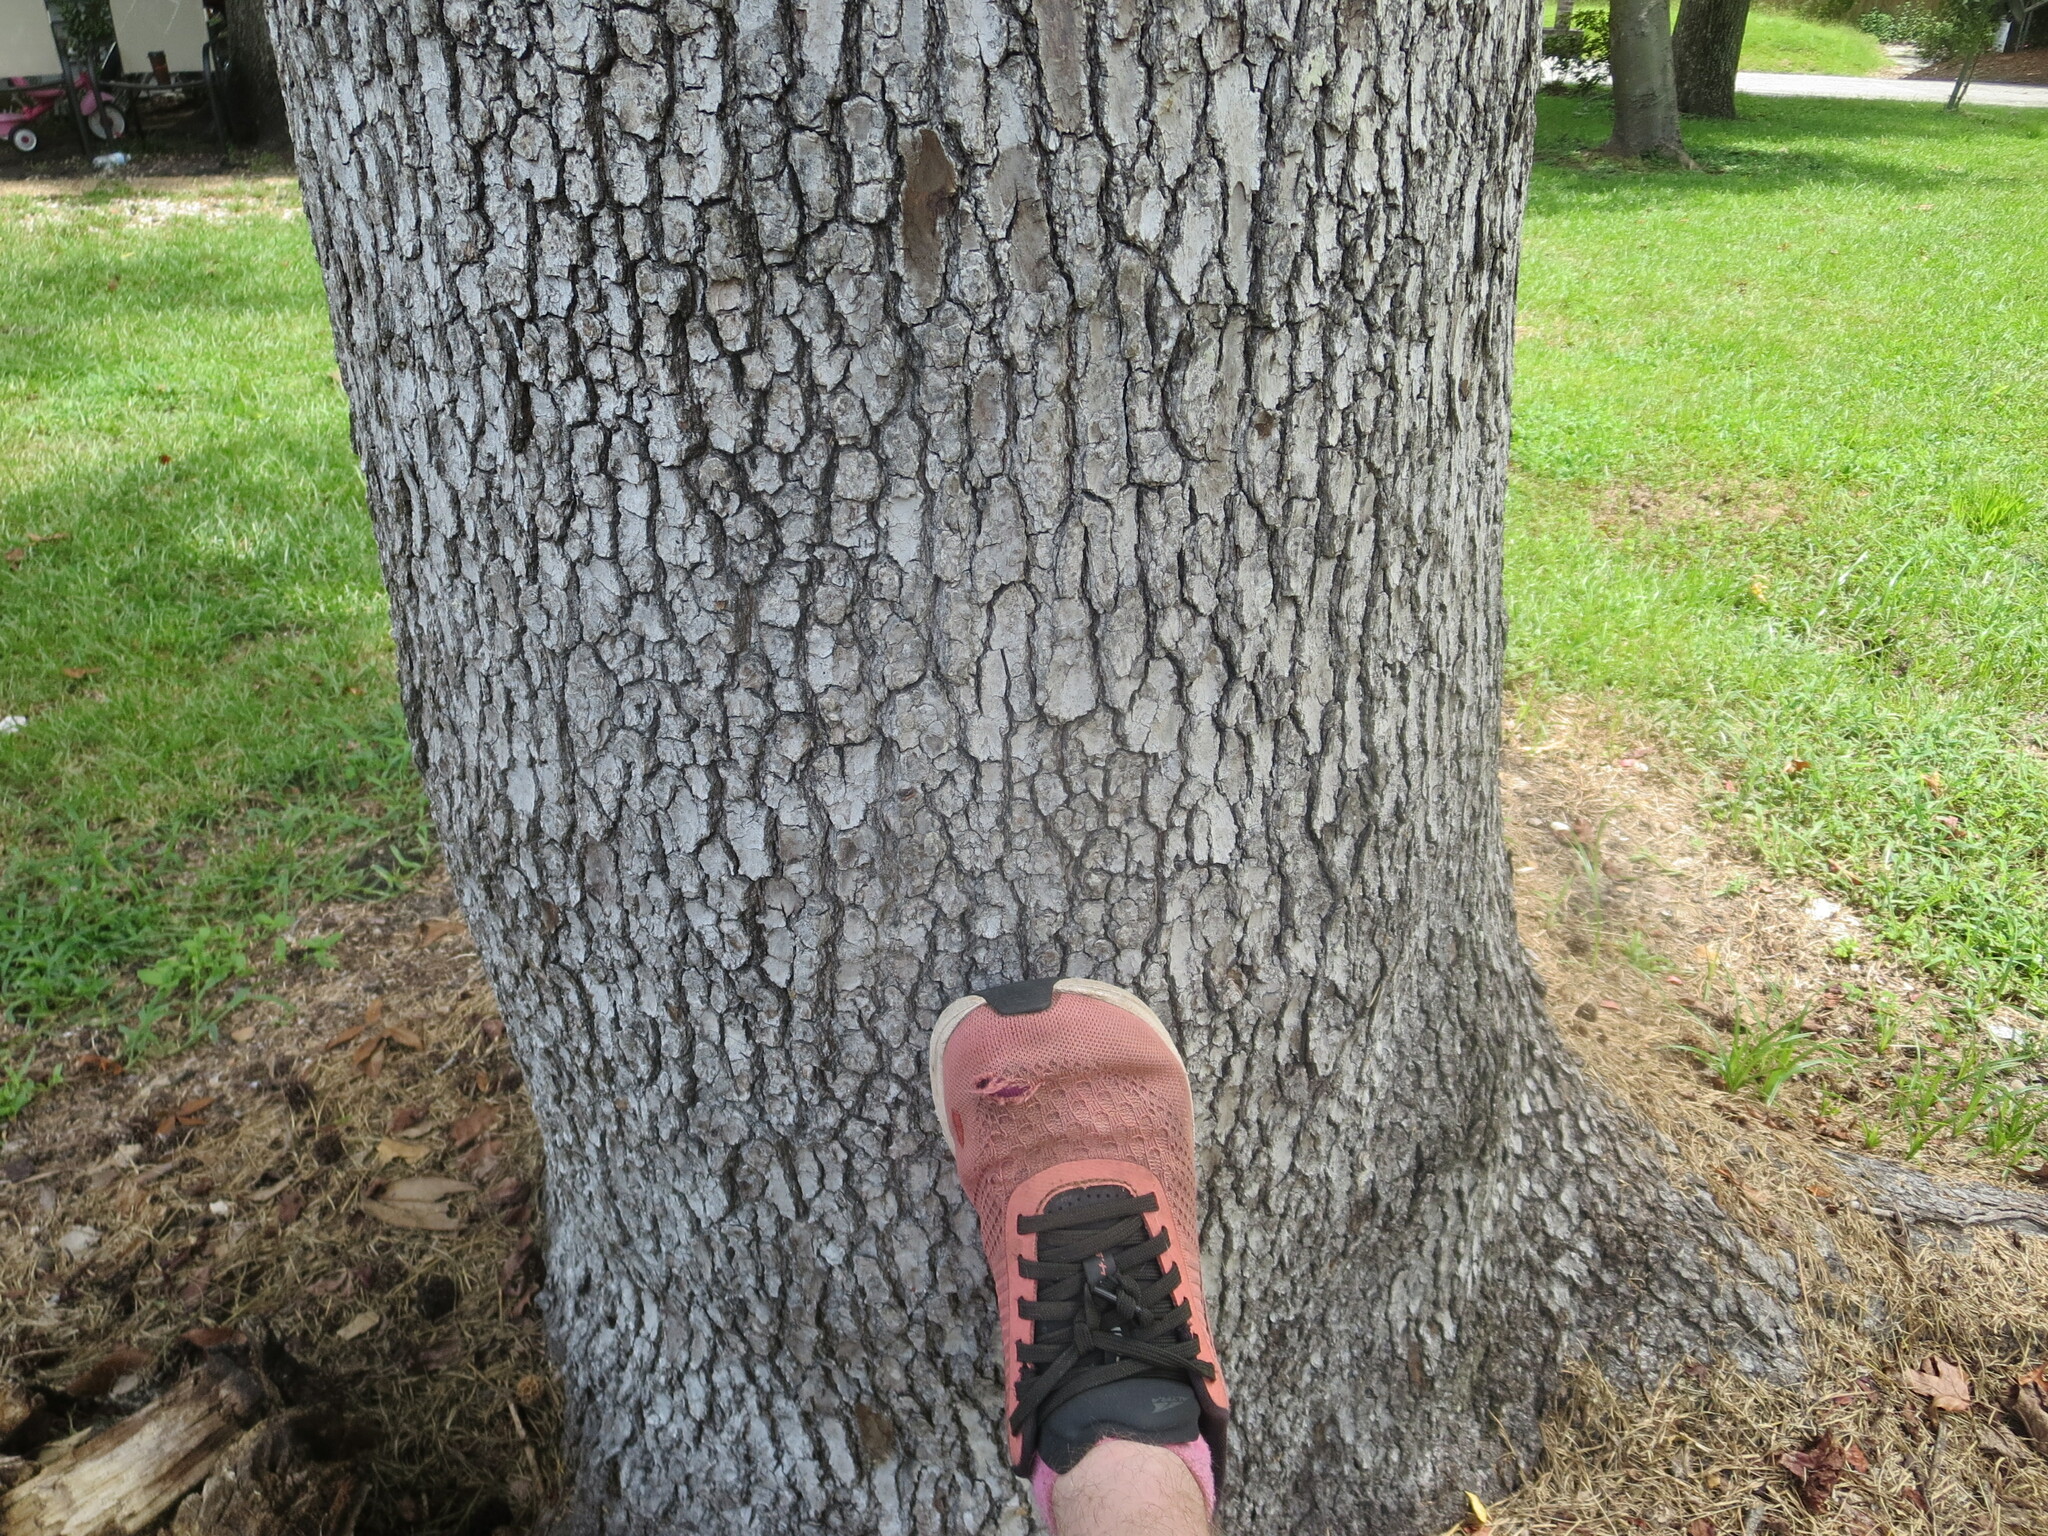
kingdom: Plantae
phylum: Tracheophyta
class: Magnoliopsida
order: Saxifragales
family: Altingiaceae
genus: Liquidambar
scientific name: Liquidambar styraciflua
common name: Sweet gum
